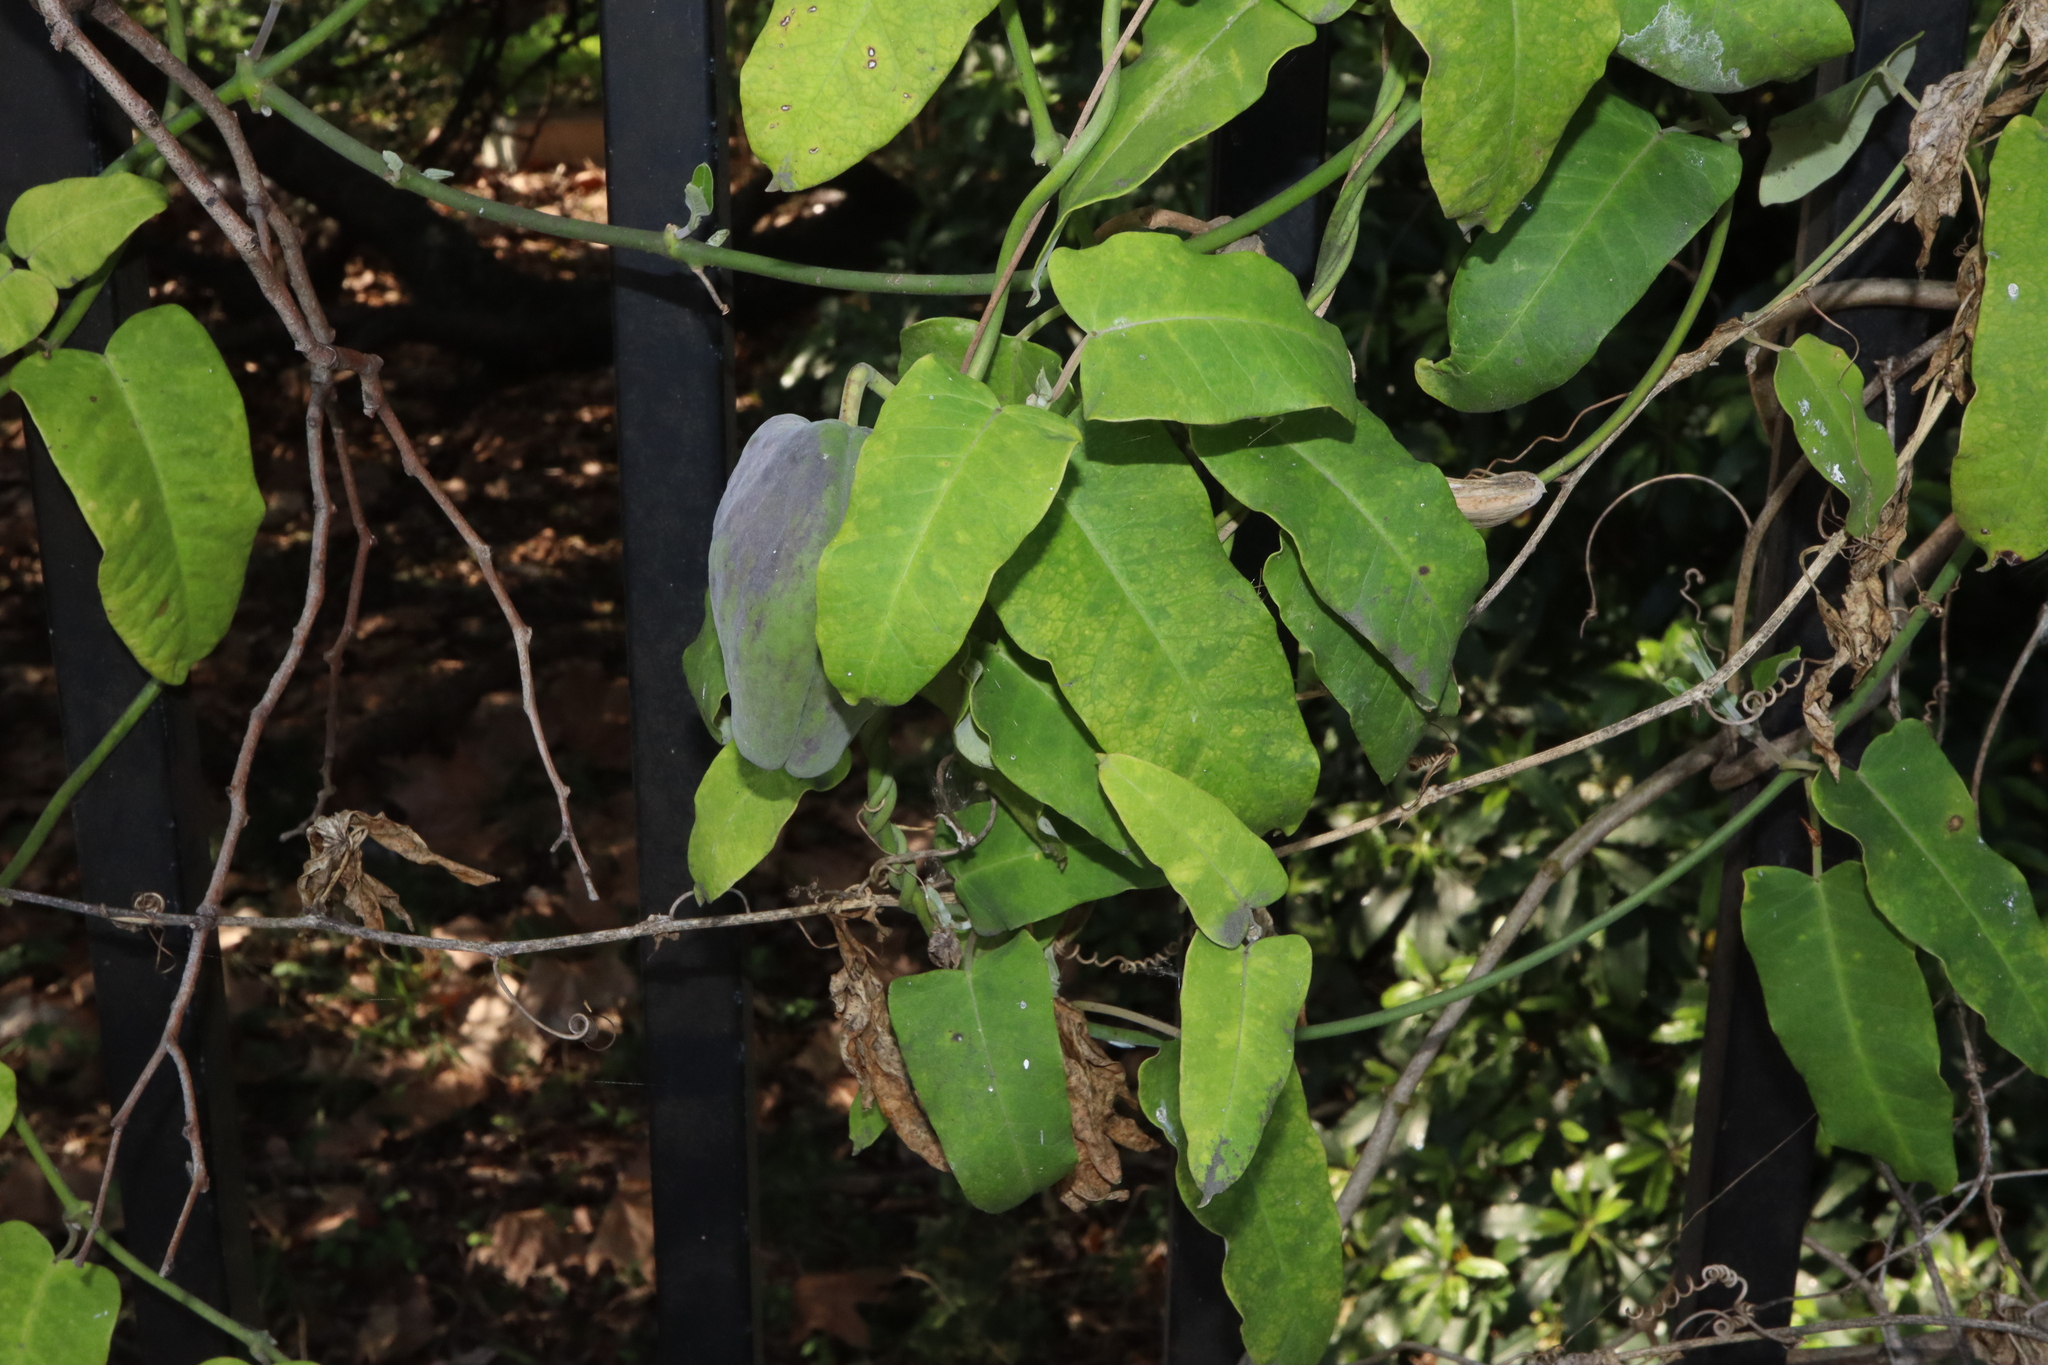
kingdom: Plantae
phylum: Tracheophyta
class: Magnoliopsida
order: Gentianales
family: Apocynaceae
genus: Araujia
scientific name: Araujia sericifera
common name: White bladderflower
